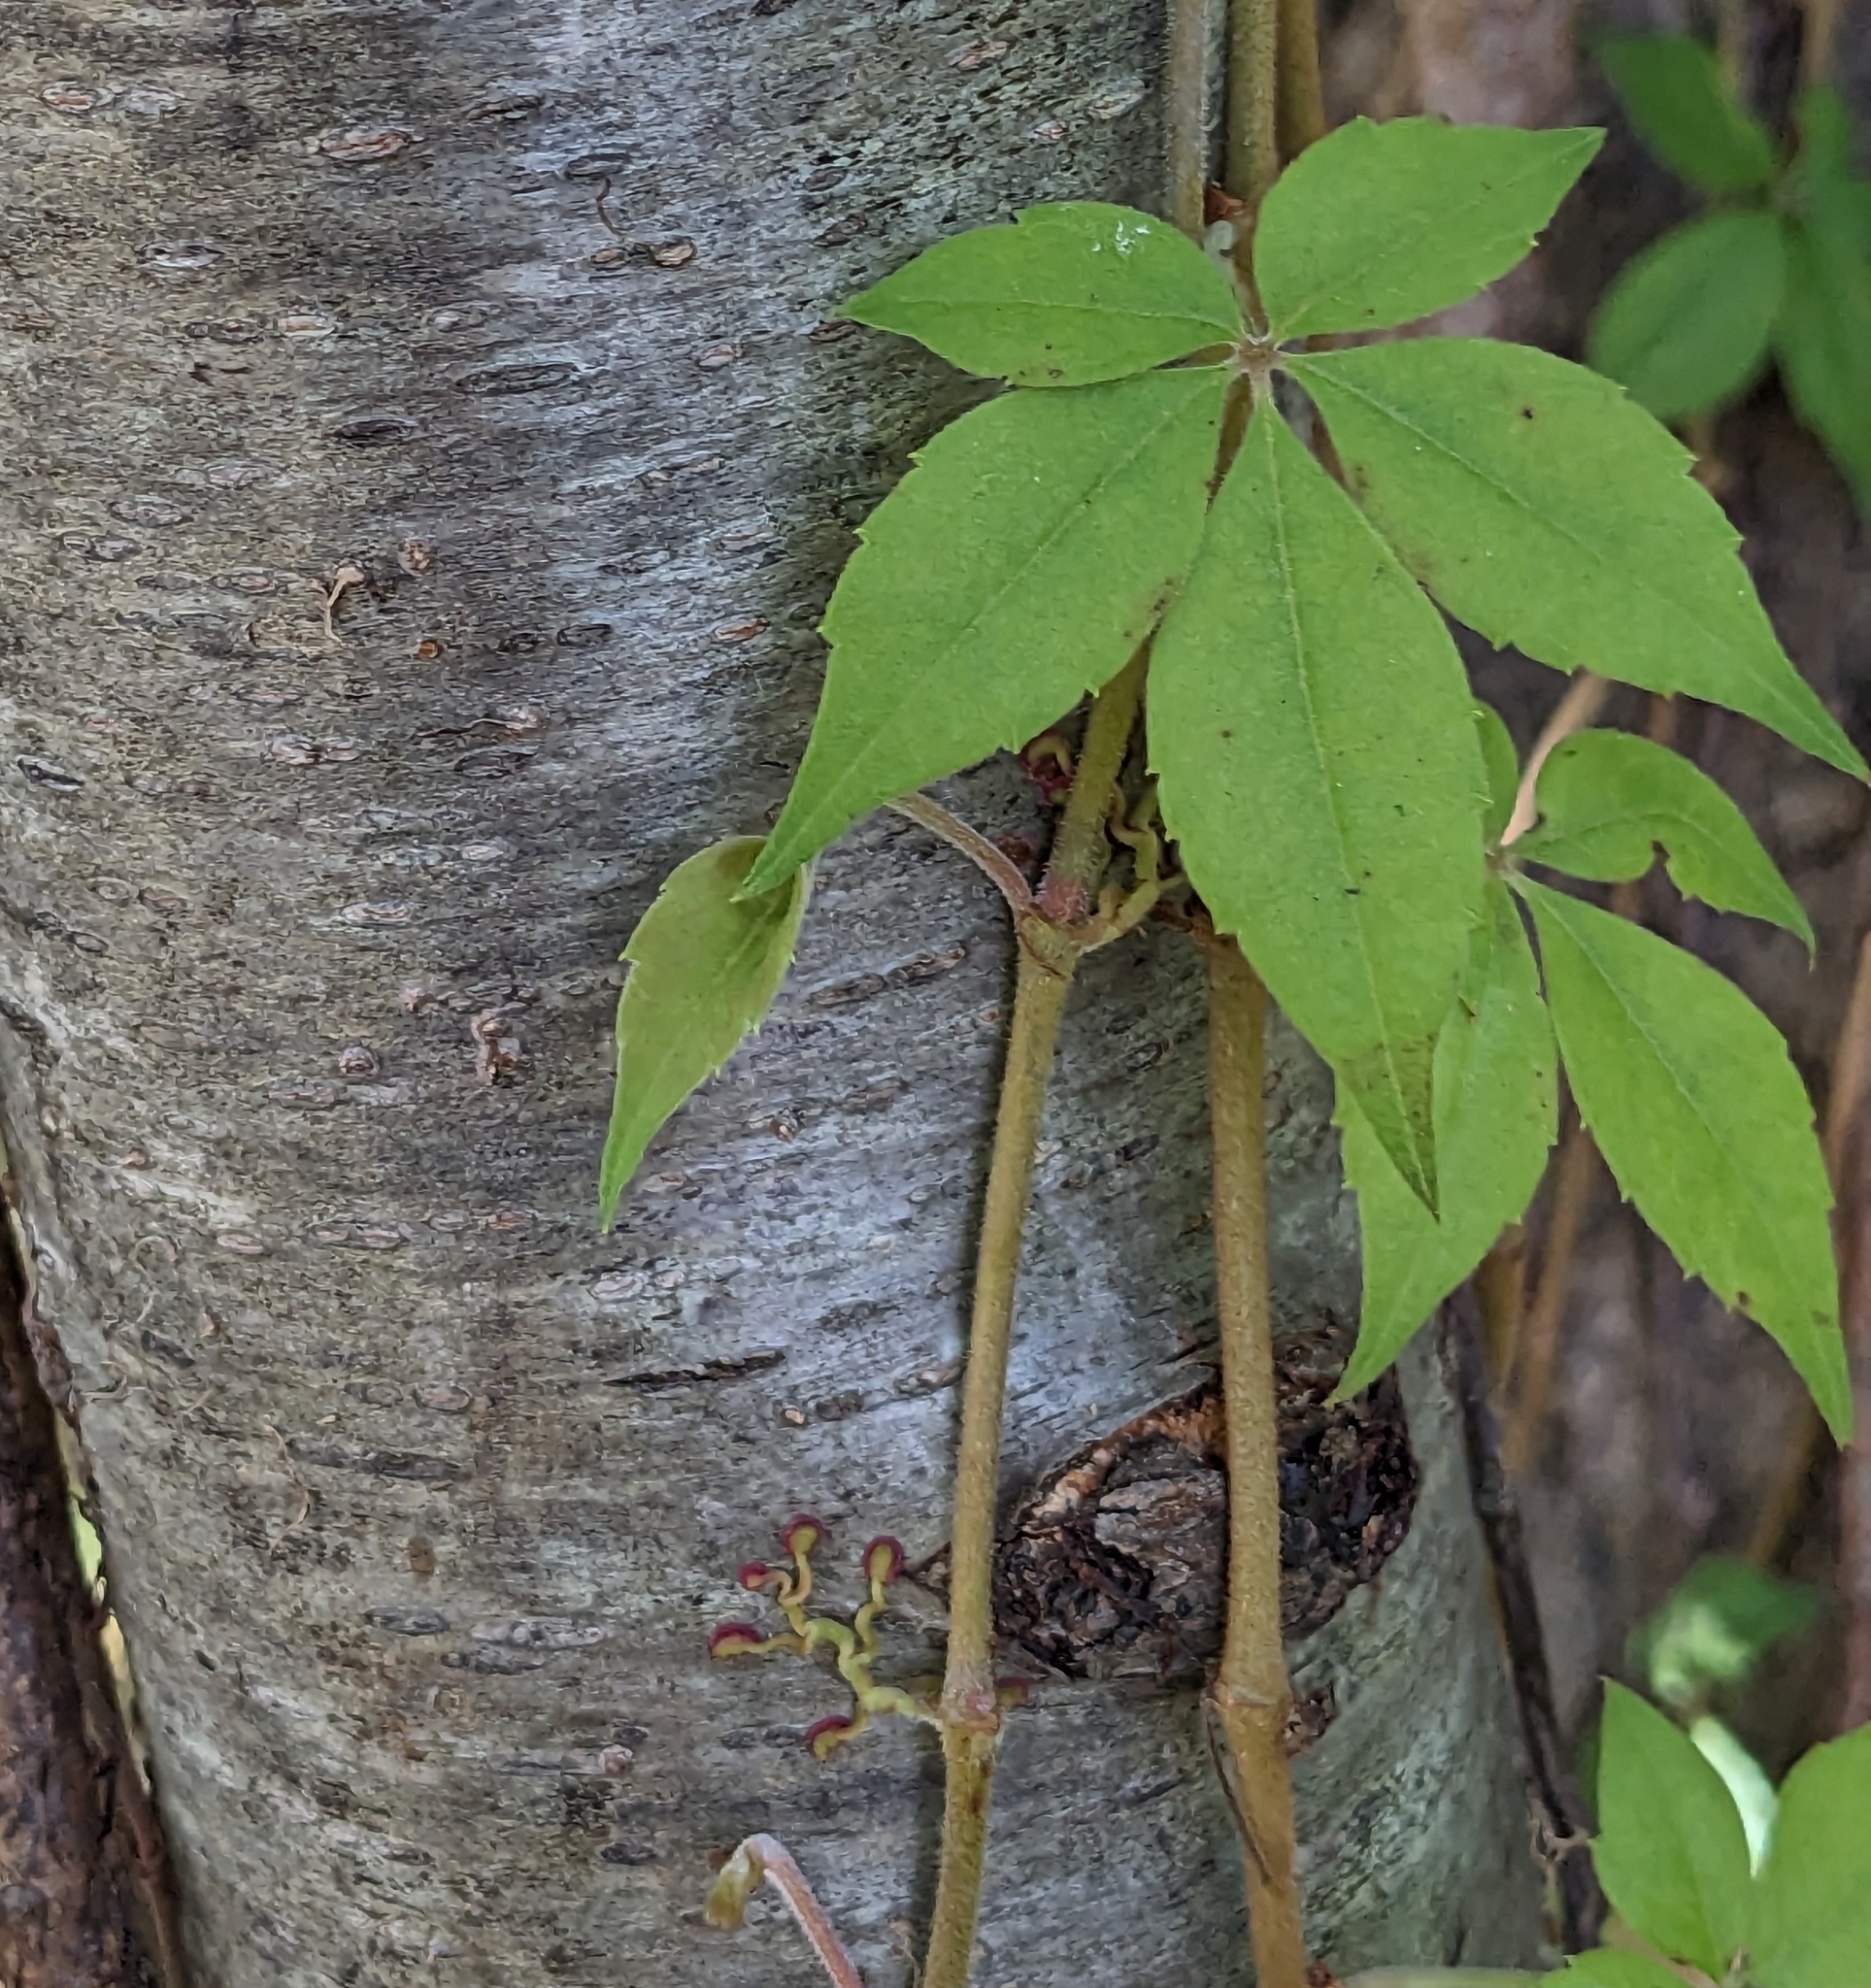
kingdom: Plantae
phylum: Tracheophyta
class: Magnoliopsida
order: Vitales
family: Vitaceae
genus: Parthenocissus
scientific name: Parthenocissus quinquefolia
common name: Virginia-creeper
